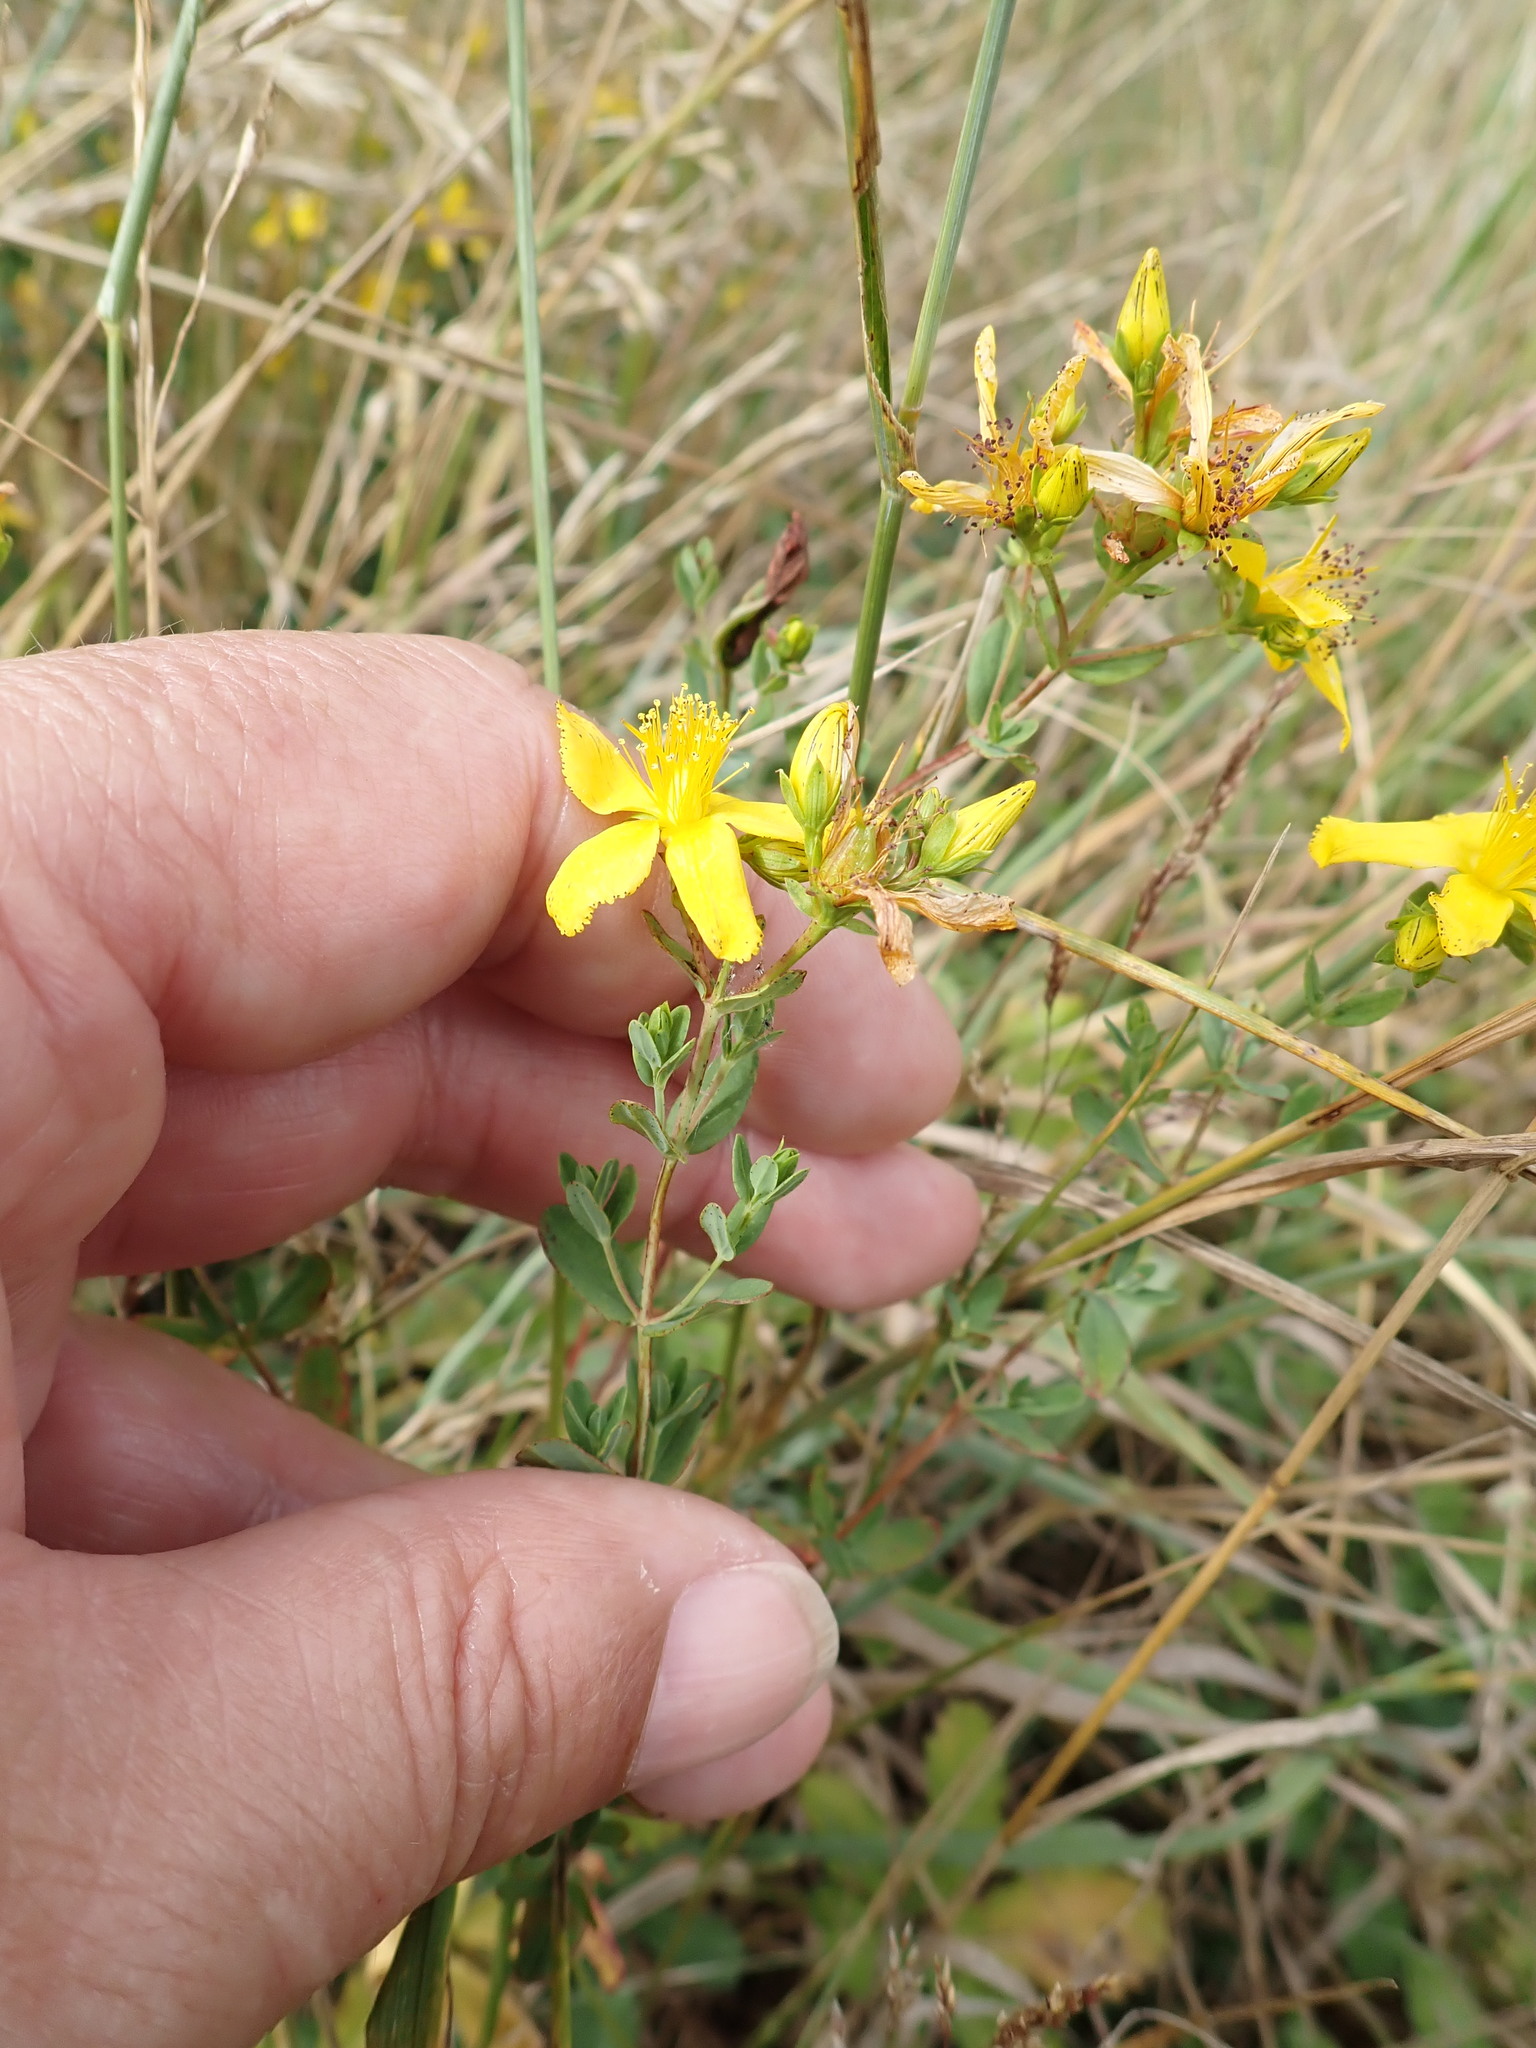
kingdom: Plantae
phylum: Tracheophyta
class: Magnoliopsida
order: Malpighiales
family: Hypericaceae
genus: Hypericum
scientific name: Hypericum perforatum
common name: Common st. johnswort
